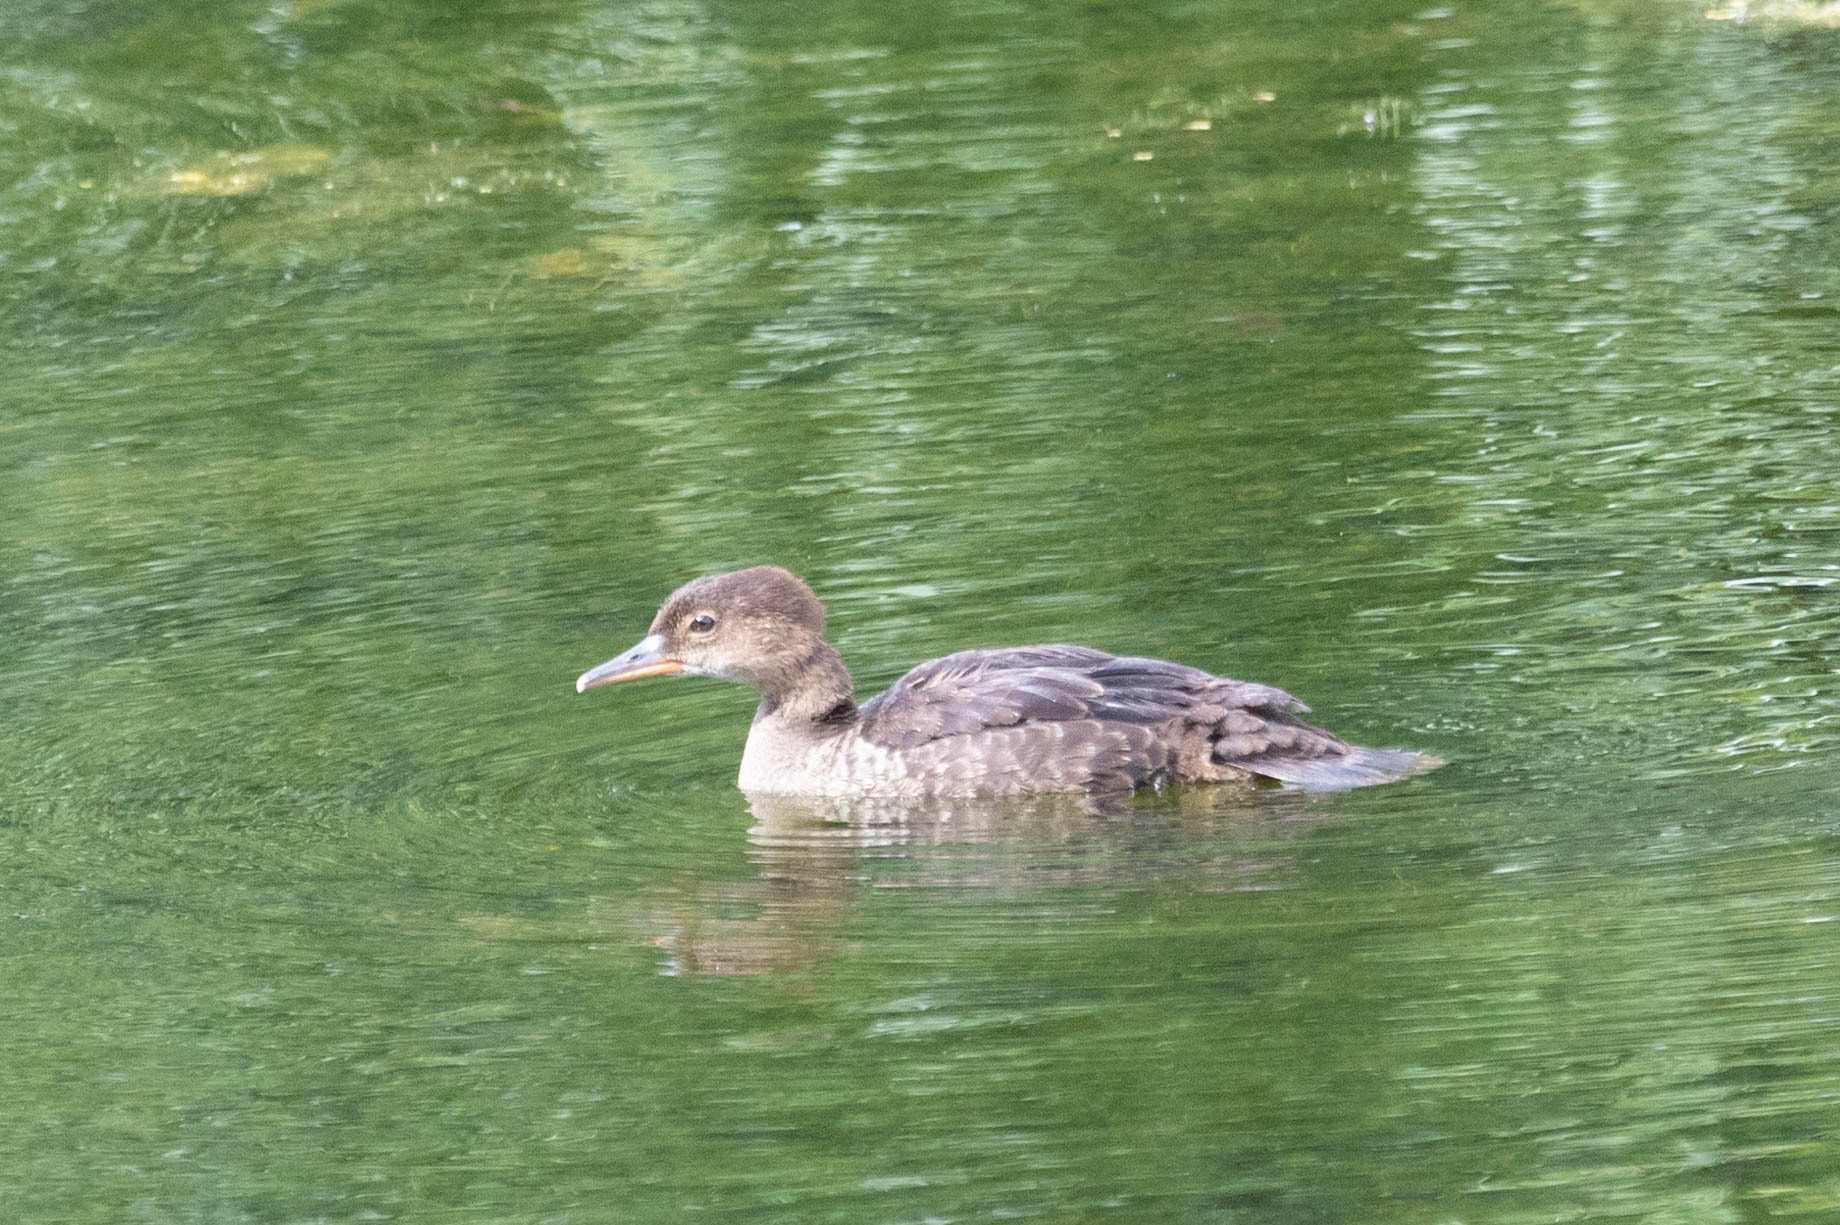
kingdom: Animalia
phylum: Chordata
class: Aves
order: Anseriformes
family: Anatidae
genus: Lophodytes
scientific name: Lophodytes cucullatus
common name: Hooded merganser
